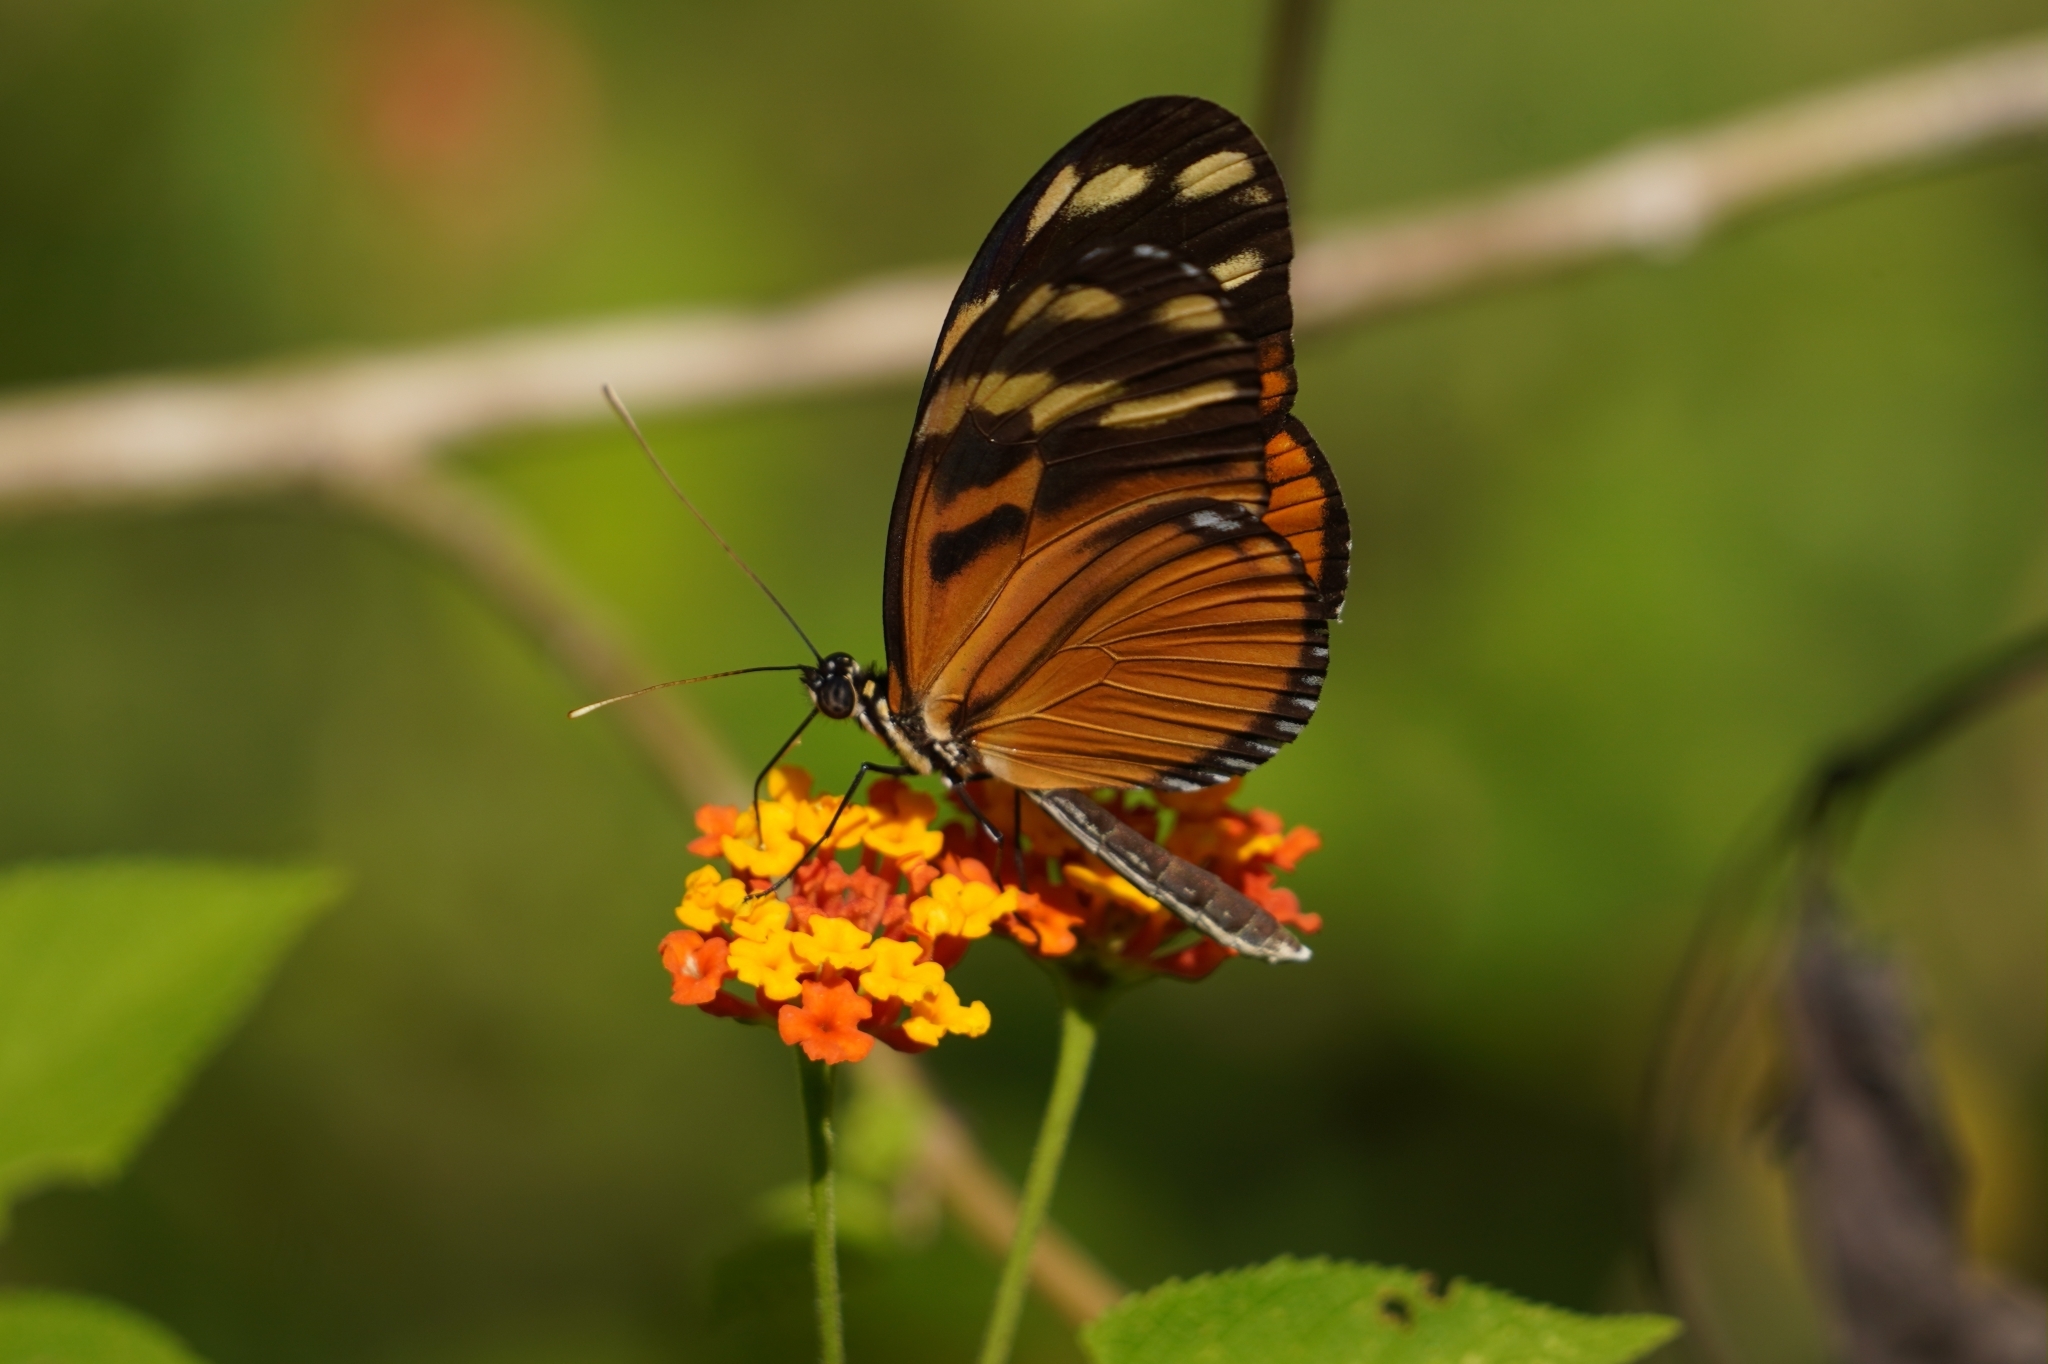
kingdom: Animalia
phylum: Arthropoda
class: Insecta
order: Lepidoptera
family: Nymphalidae
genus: Heliconius
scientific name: Heliconius ismenius
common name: Ismenius tiger
